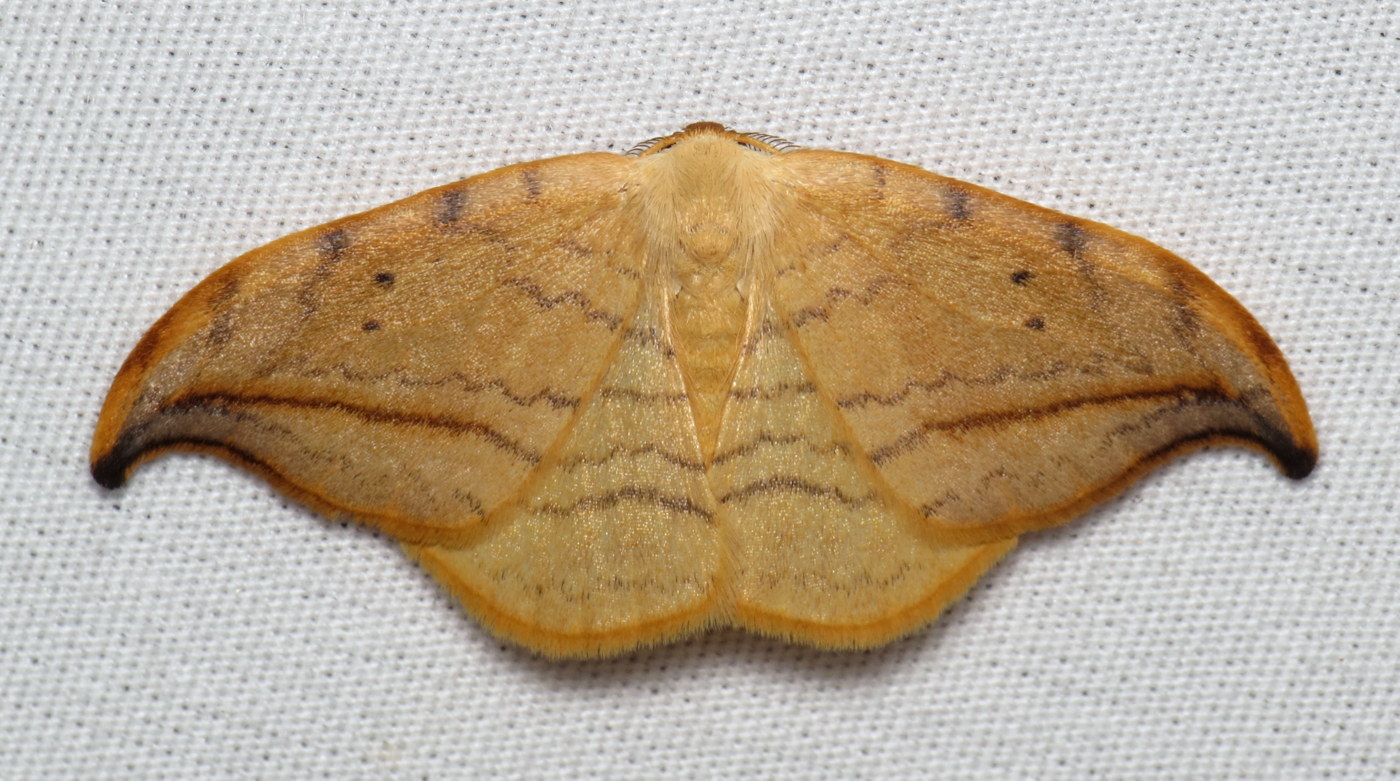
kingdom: Animalia
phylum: Arthropoda
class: Insecta
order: Lepidoptera
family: Drepanidae
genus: Drepana
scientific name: Drepana arcuata
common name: Arched hooktip moth
